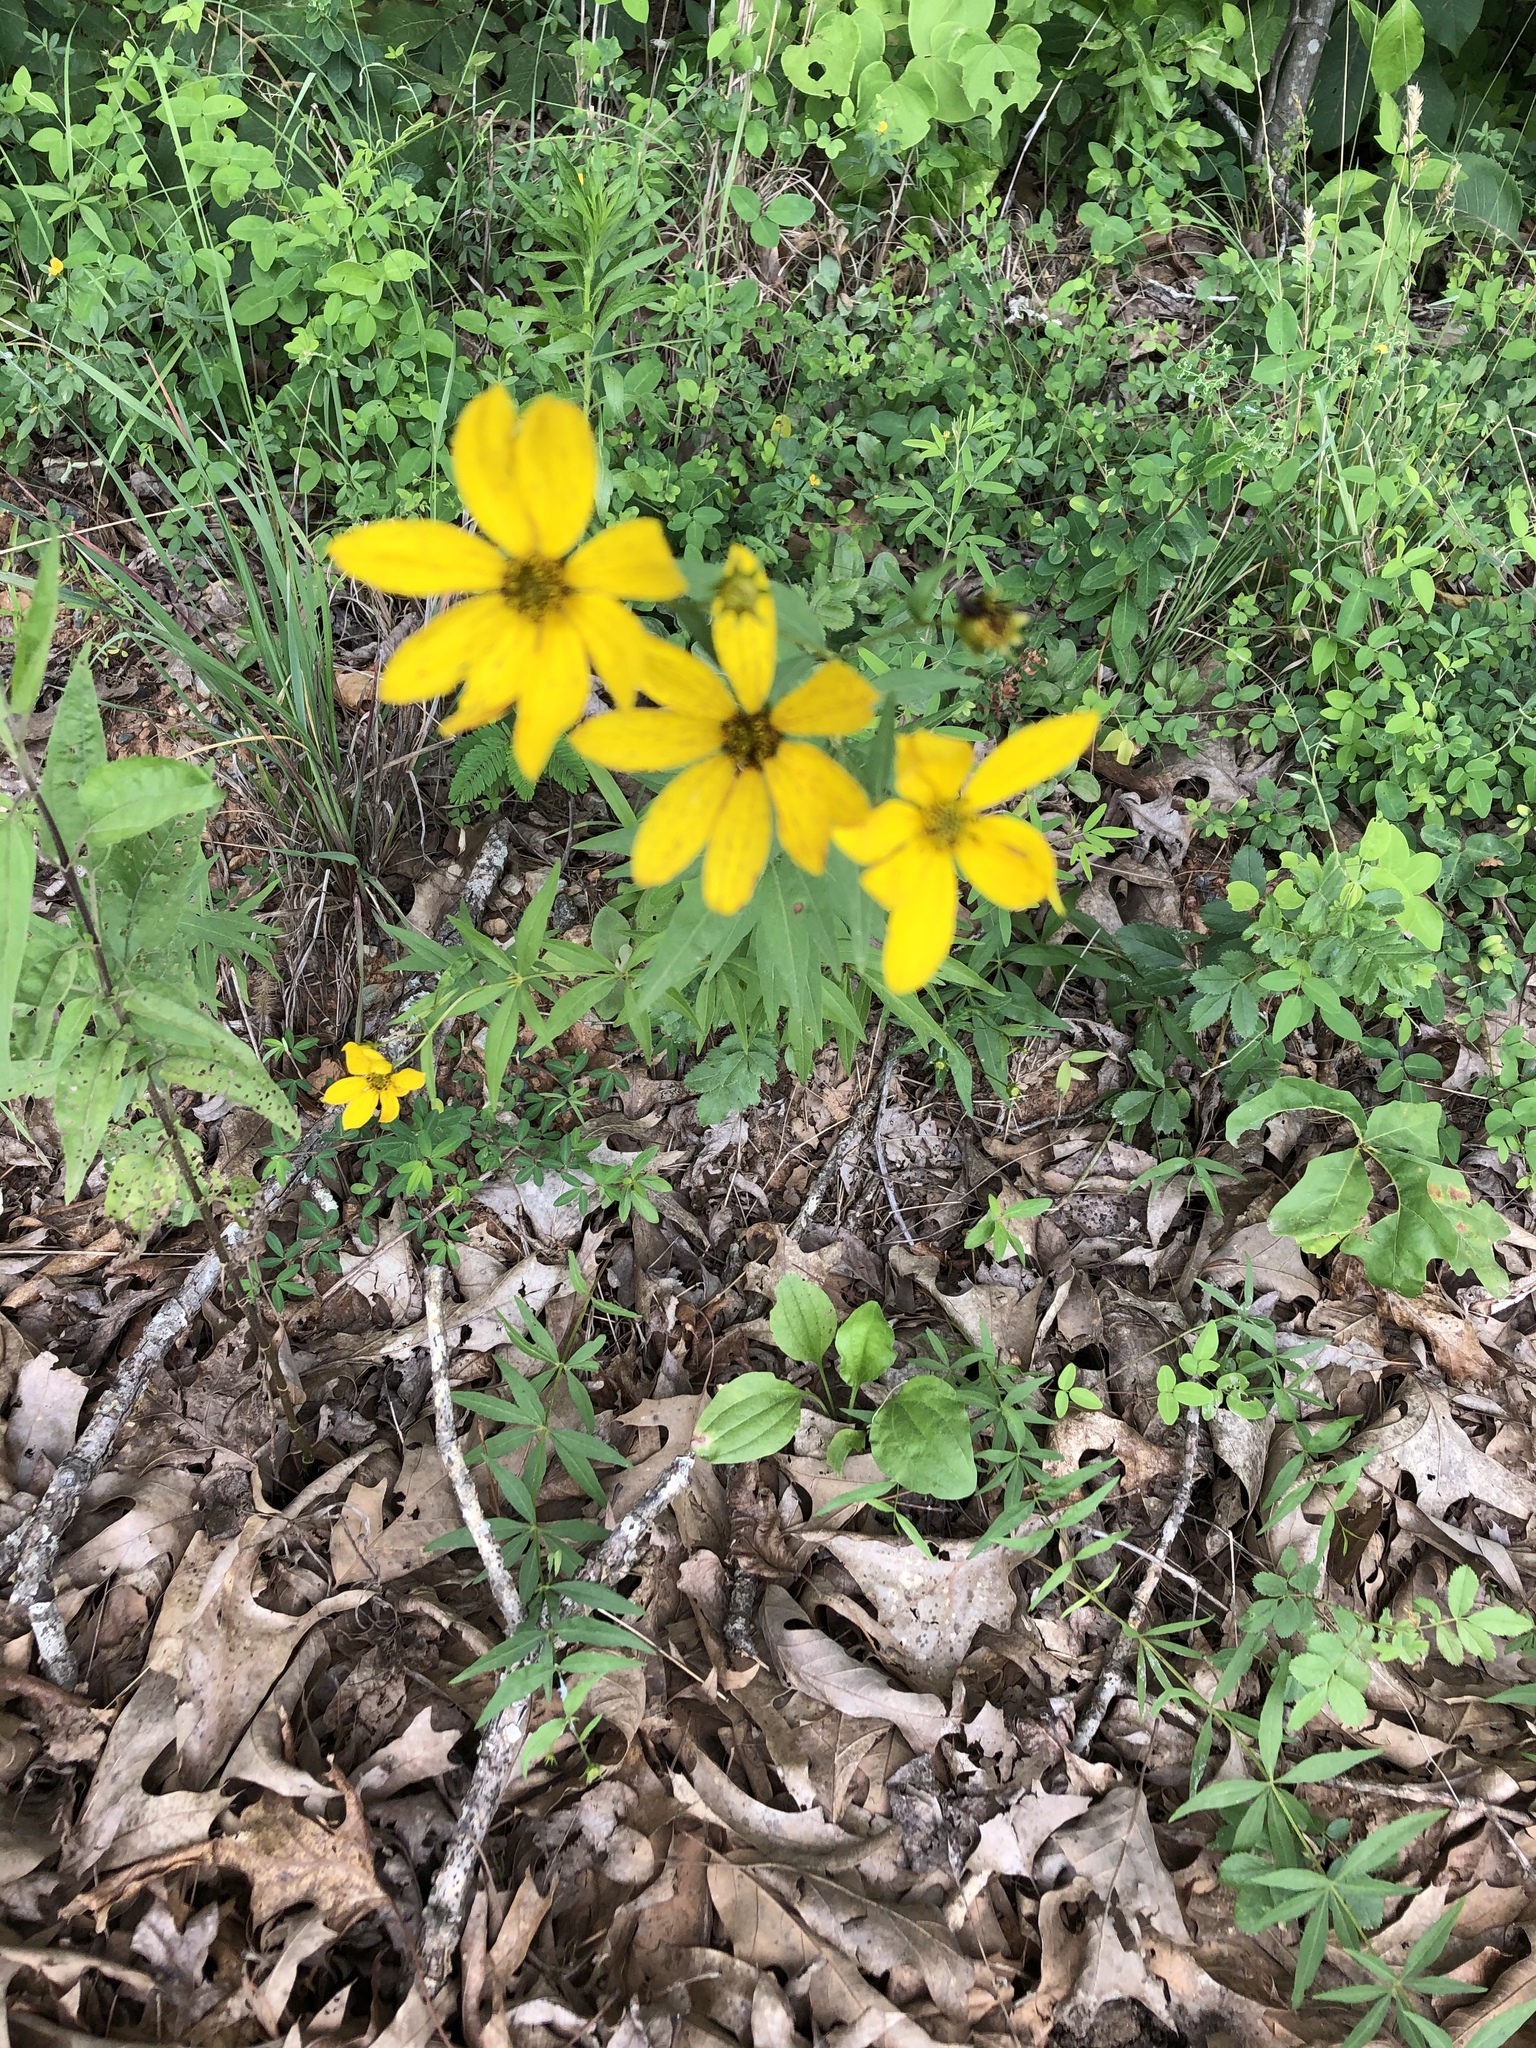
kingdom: Plantae
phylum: Tracheophyta
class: Magnoliopsida
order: Asterales
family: Asteraceae
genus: Coreopsis
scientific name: Coreopsis major
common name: Forest tickseed
